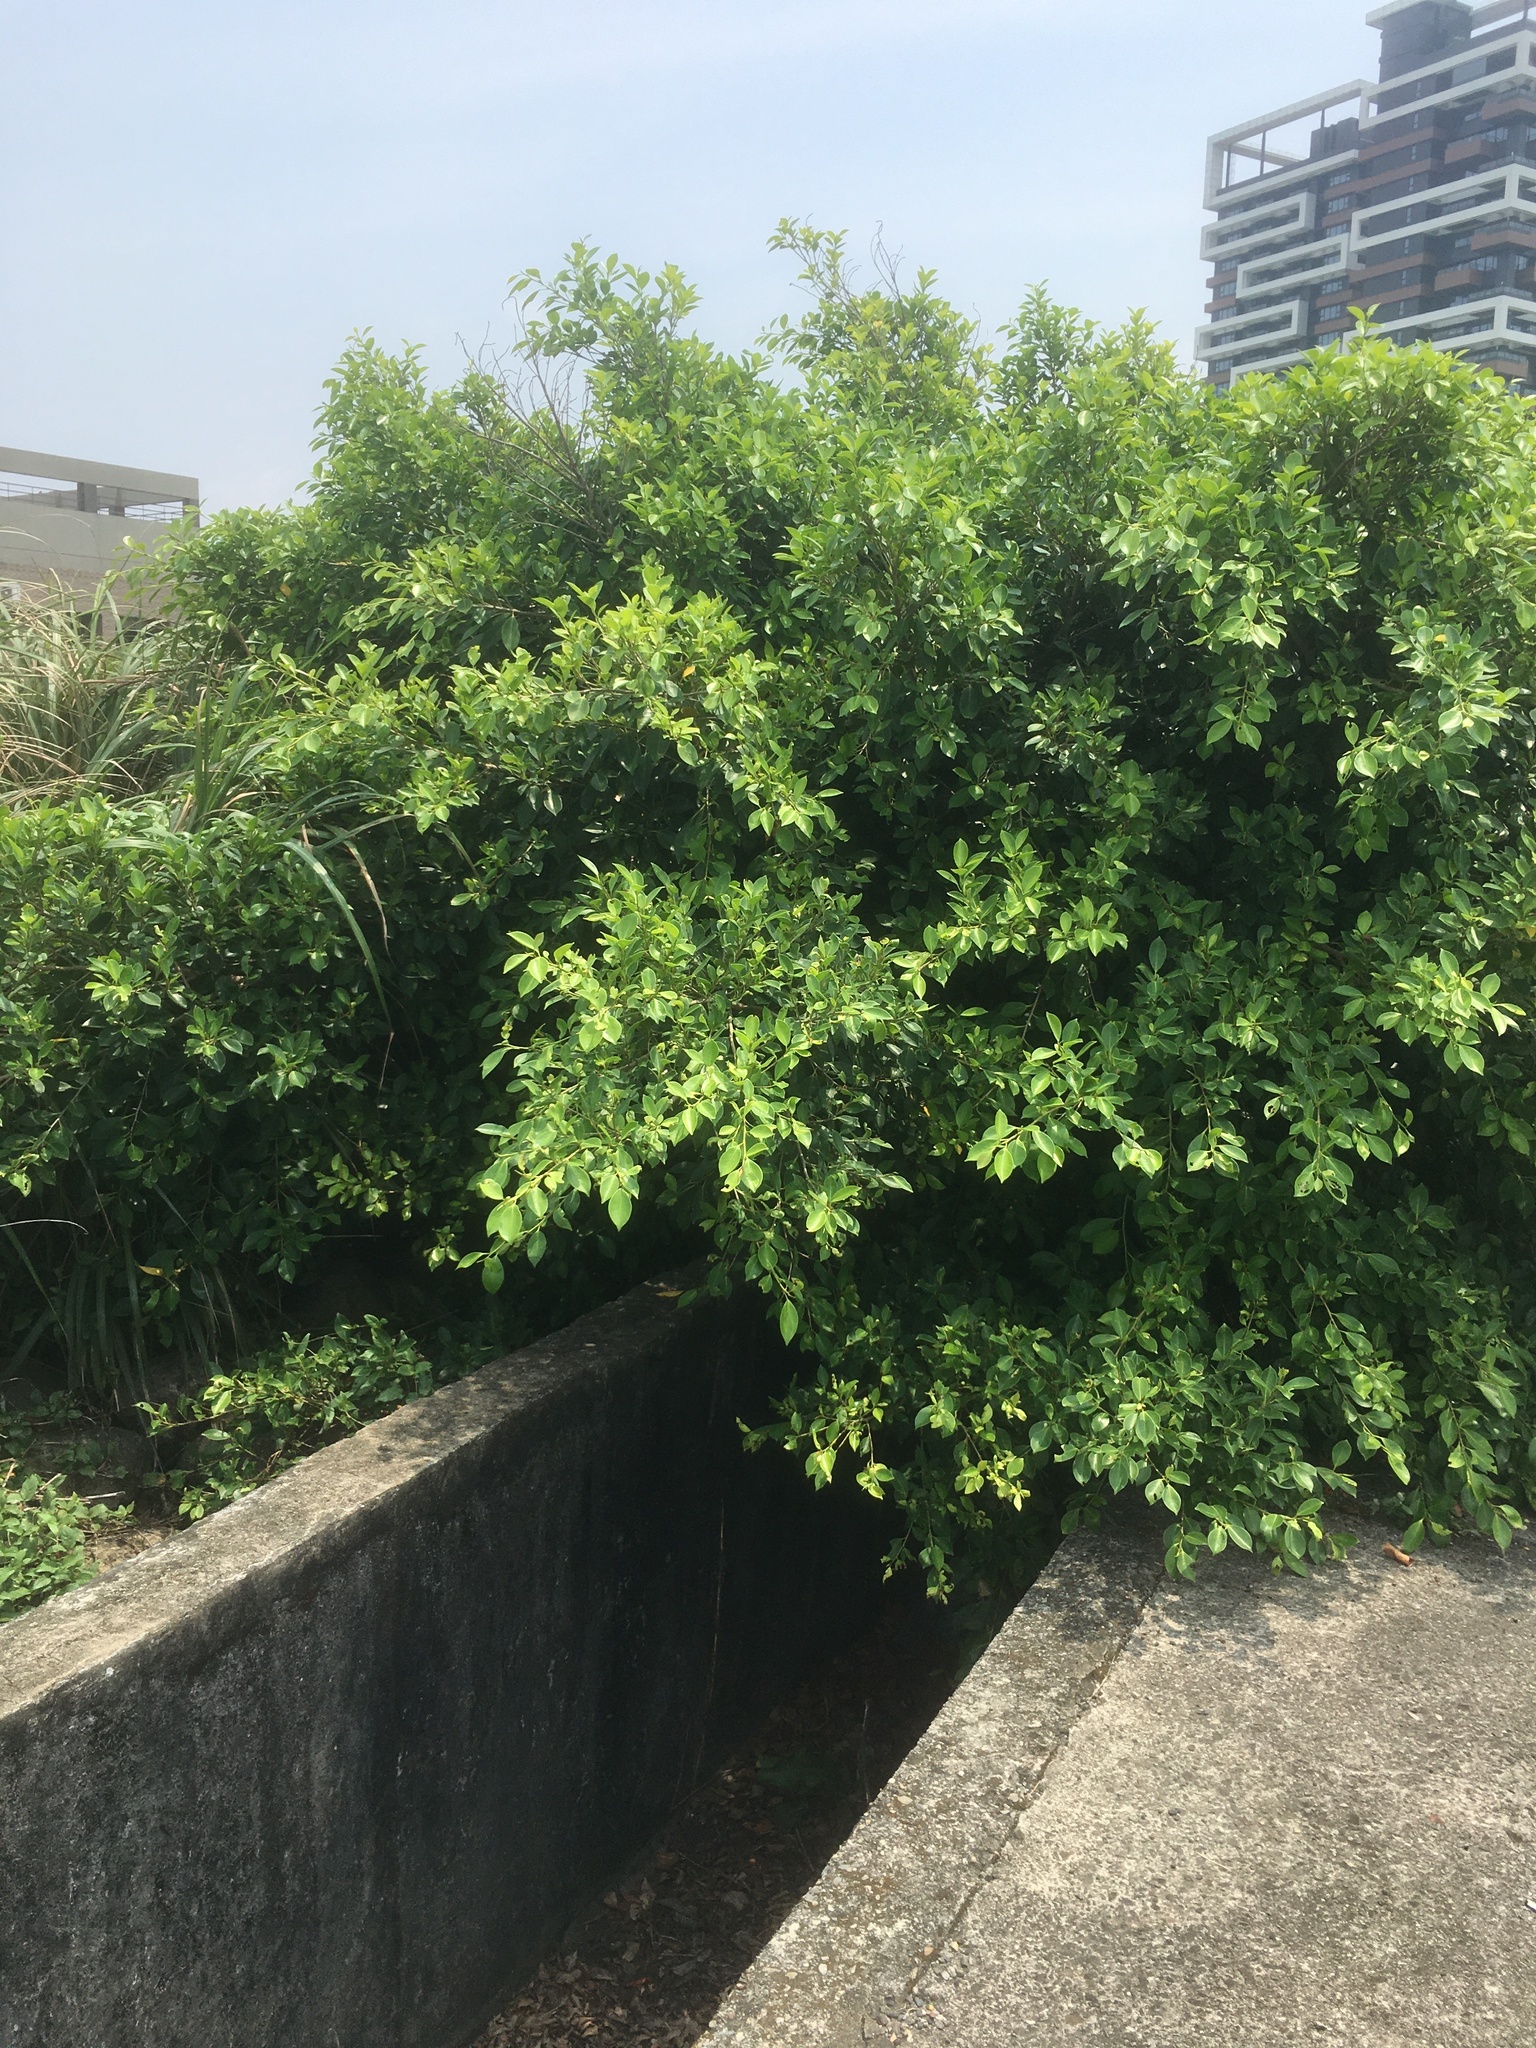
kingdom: Plantae
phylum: Tracheophyta
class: Magnoliopsida
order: Rosales
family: Moraceae
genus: Ficus
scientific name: Ficus microcarpa
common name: Chinese banyan
